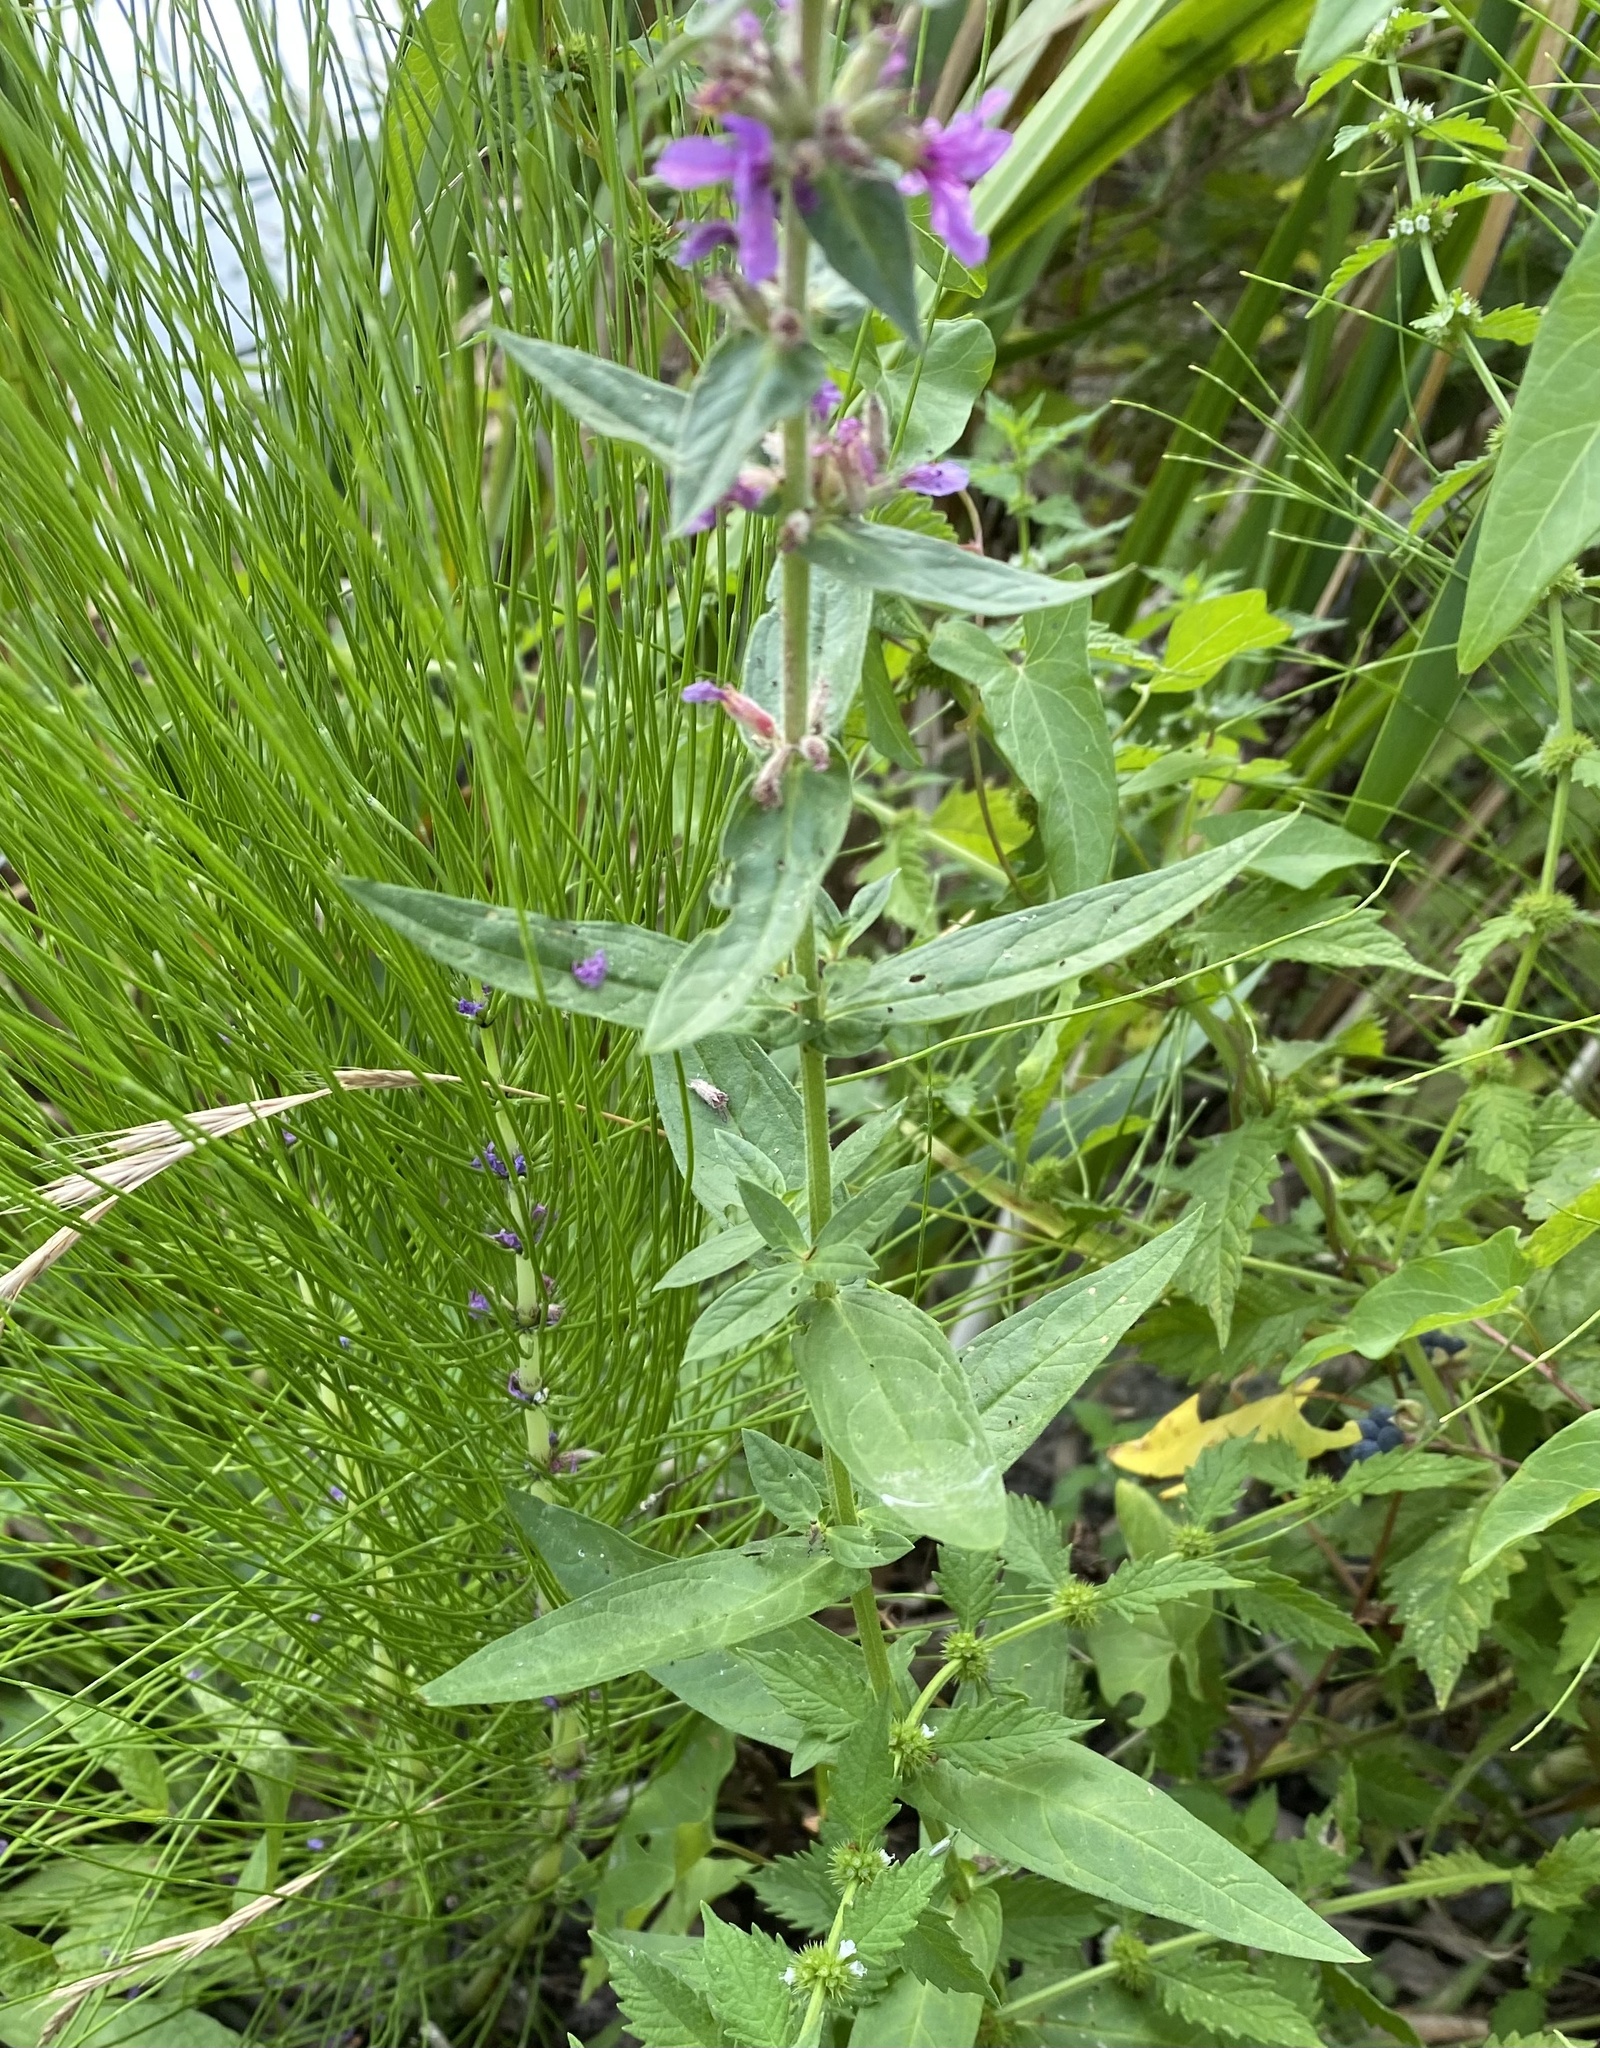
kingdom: Plantae
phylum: Tracheophyta
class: Magnoliopsida
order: Myrtales
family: Lythraceae
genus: Lythrum
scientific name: Lythrum salicaria
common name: Purple loosestrife
